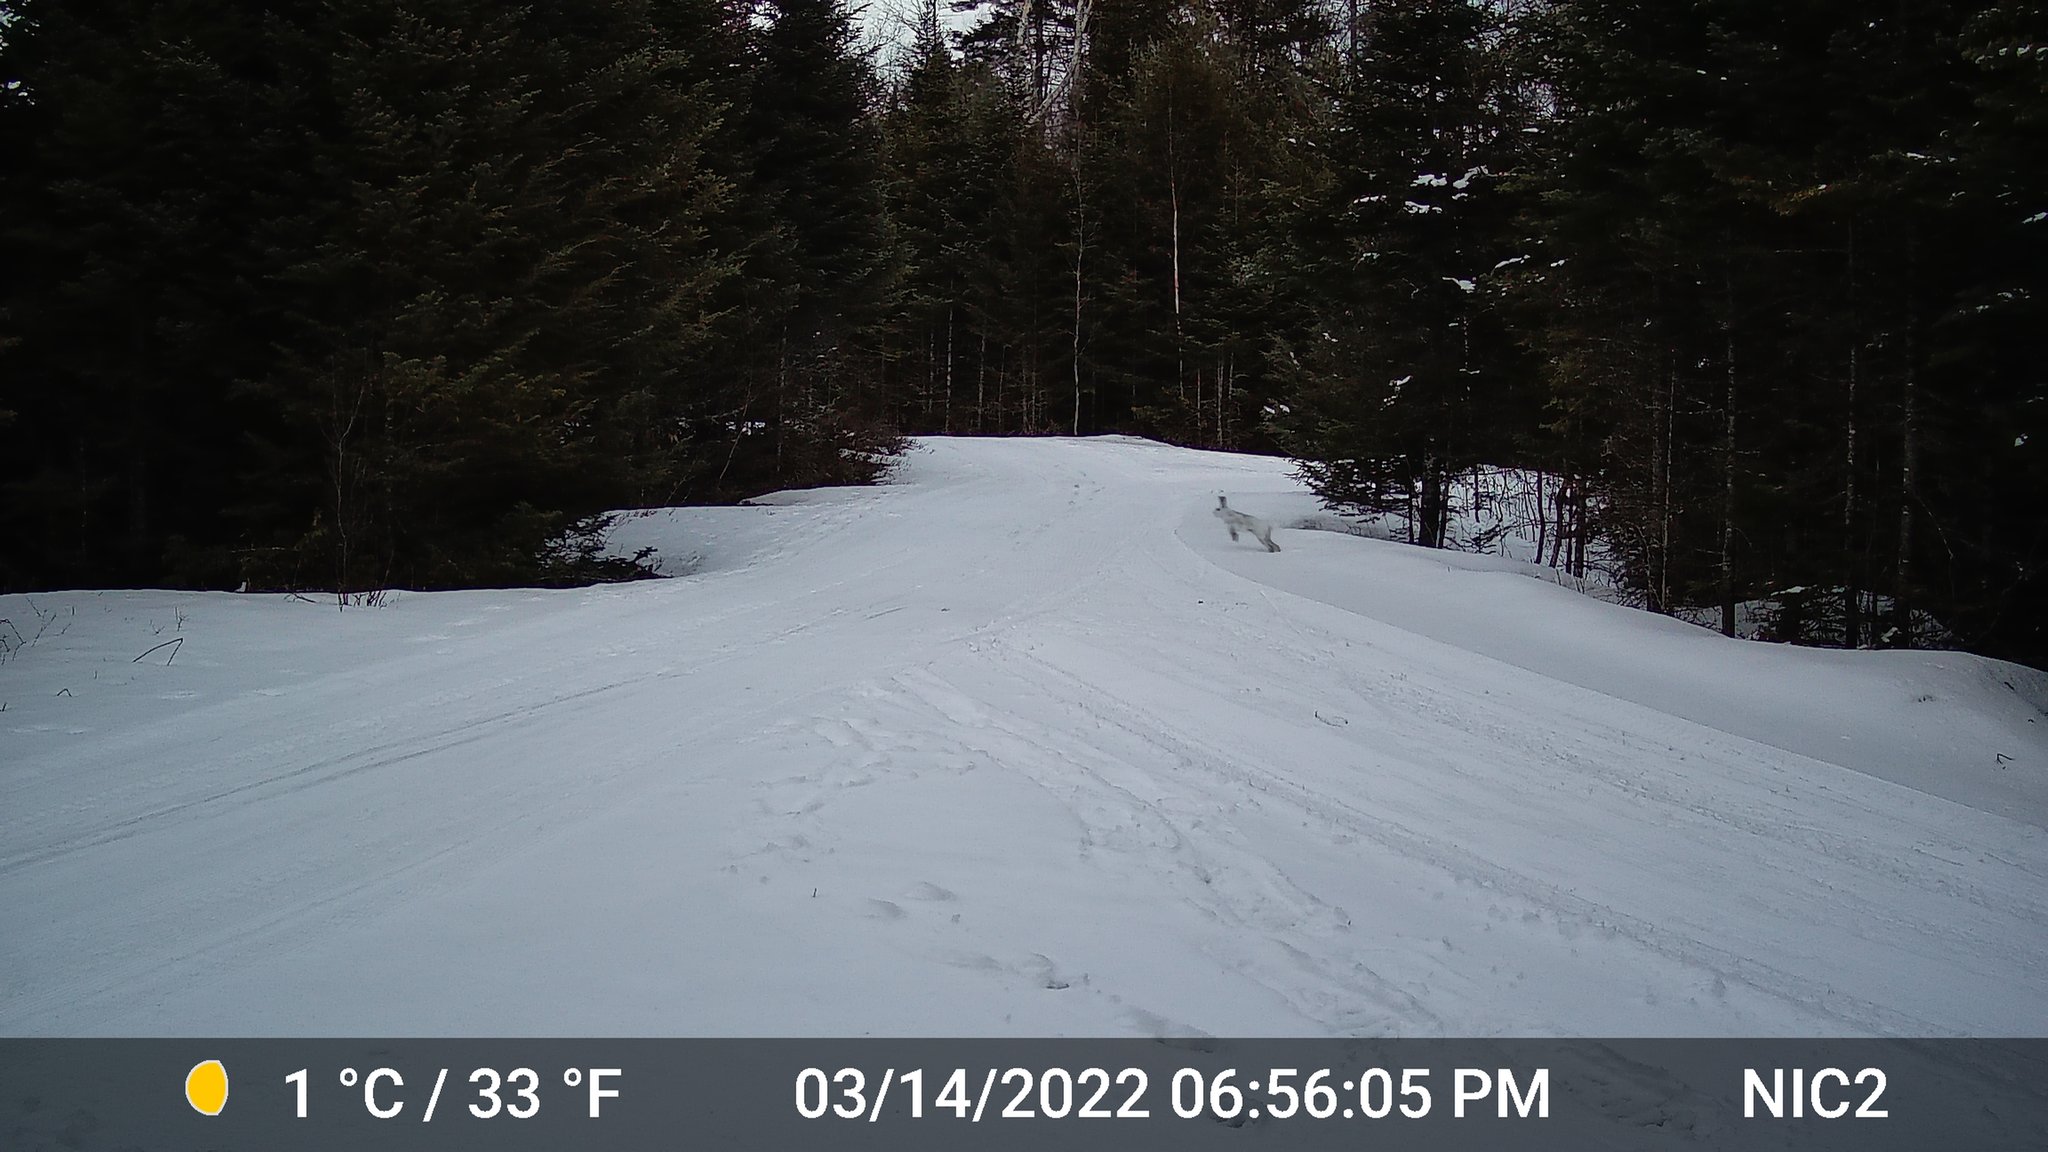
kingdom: Animalia
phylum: Chordata
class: Mammalia
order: Lagomorpha
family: Leporidae
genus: Lepus
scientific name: Lepus americanus
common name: Snowshoe hare
